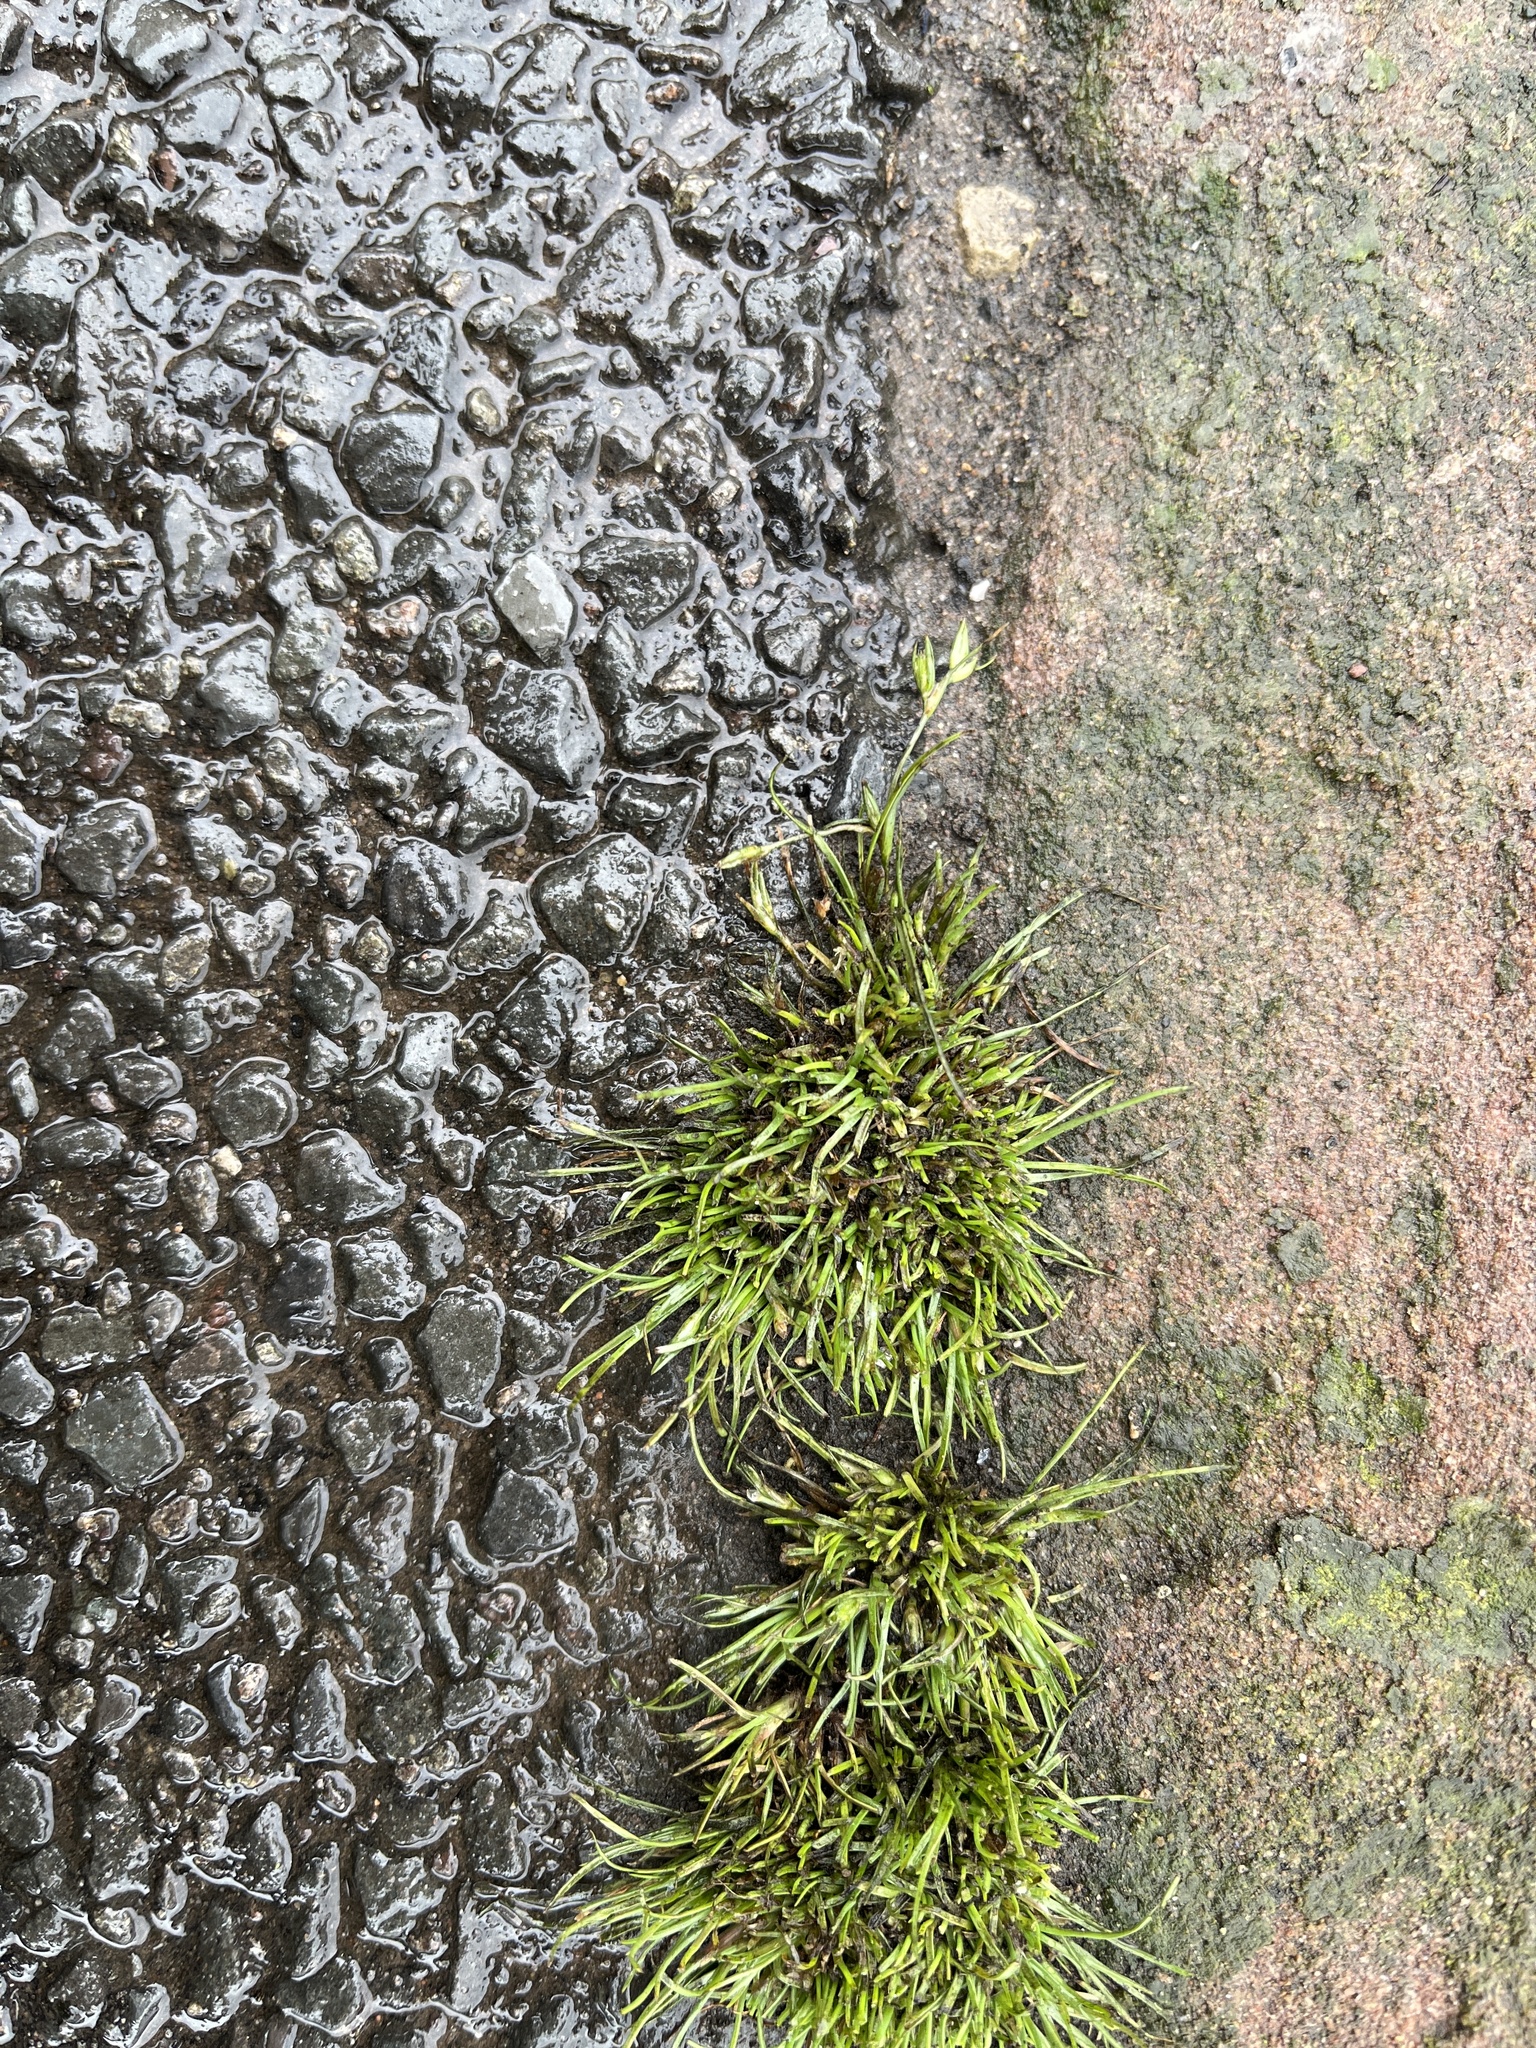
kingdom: Plantae
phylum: Tracheophyta
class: Liliopsida
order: Poales
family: Juncaceae
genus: Juncus
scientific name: Juncus bufonius
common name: Toad rush
